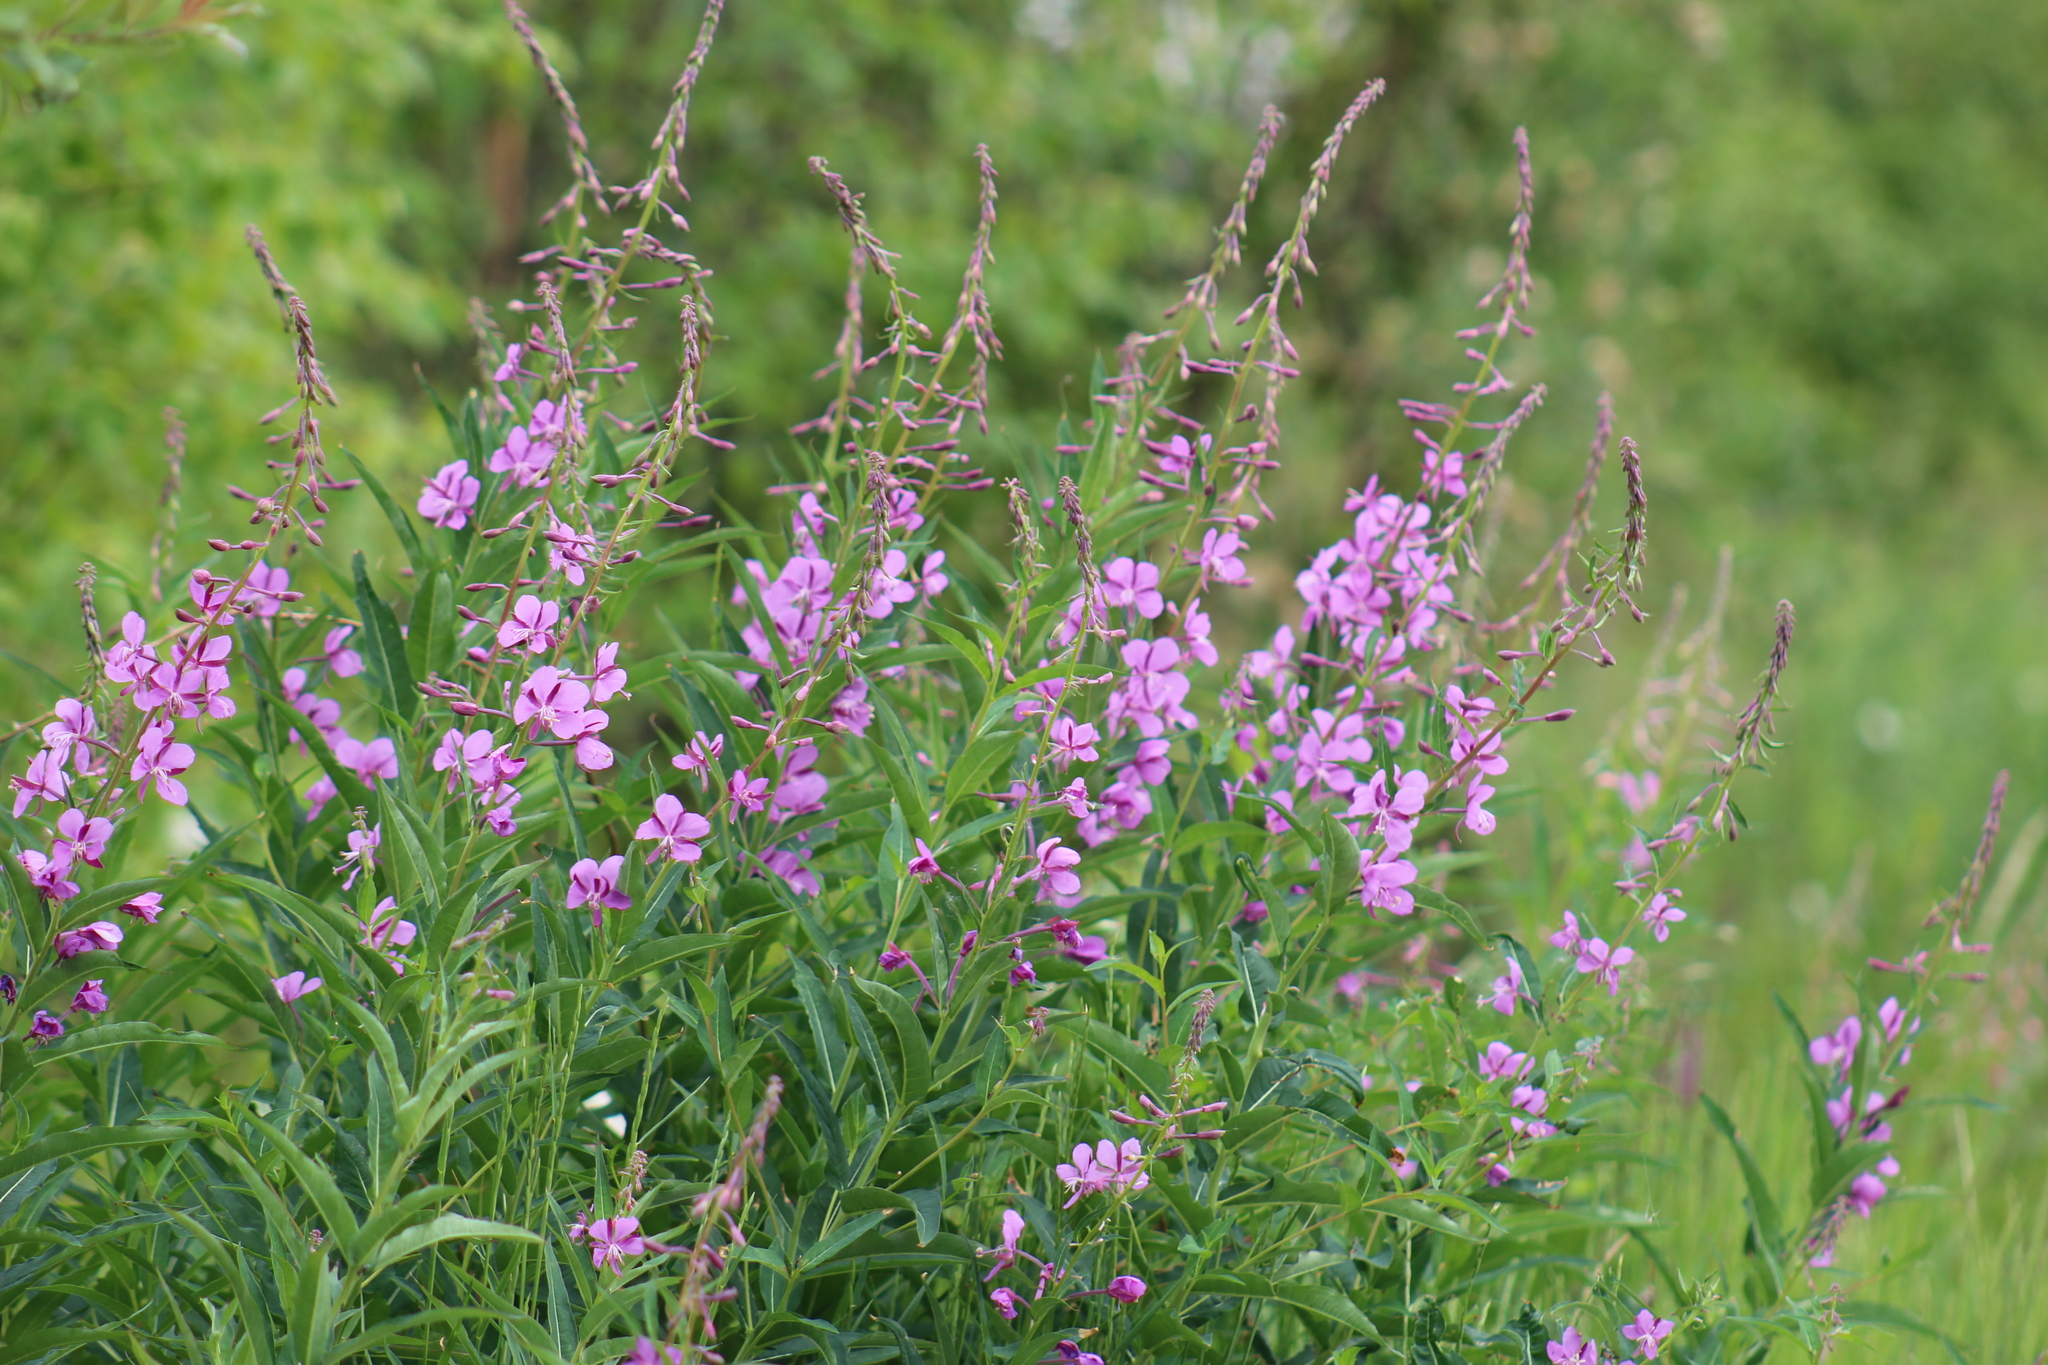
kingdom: Plantae
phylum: Tracheophyta
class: Magnoliopsida
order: Myrtales
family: Onagraceae
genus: Chamaenerion
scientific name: Chamaenerion angustifolium
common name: Fireweed
